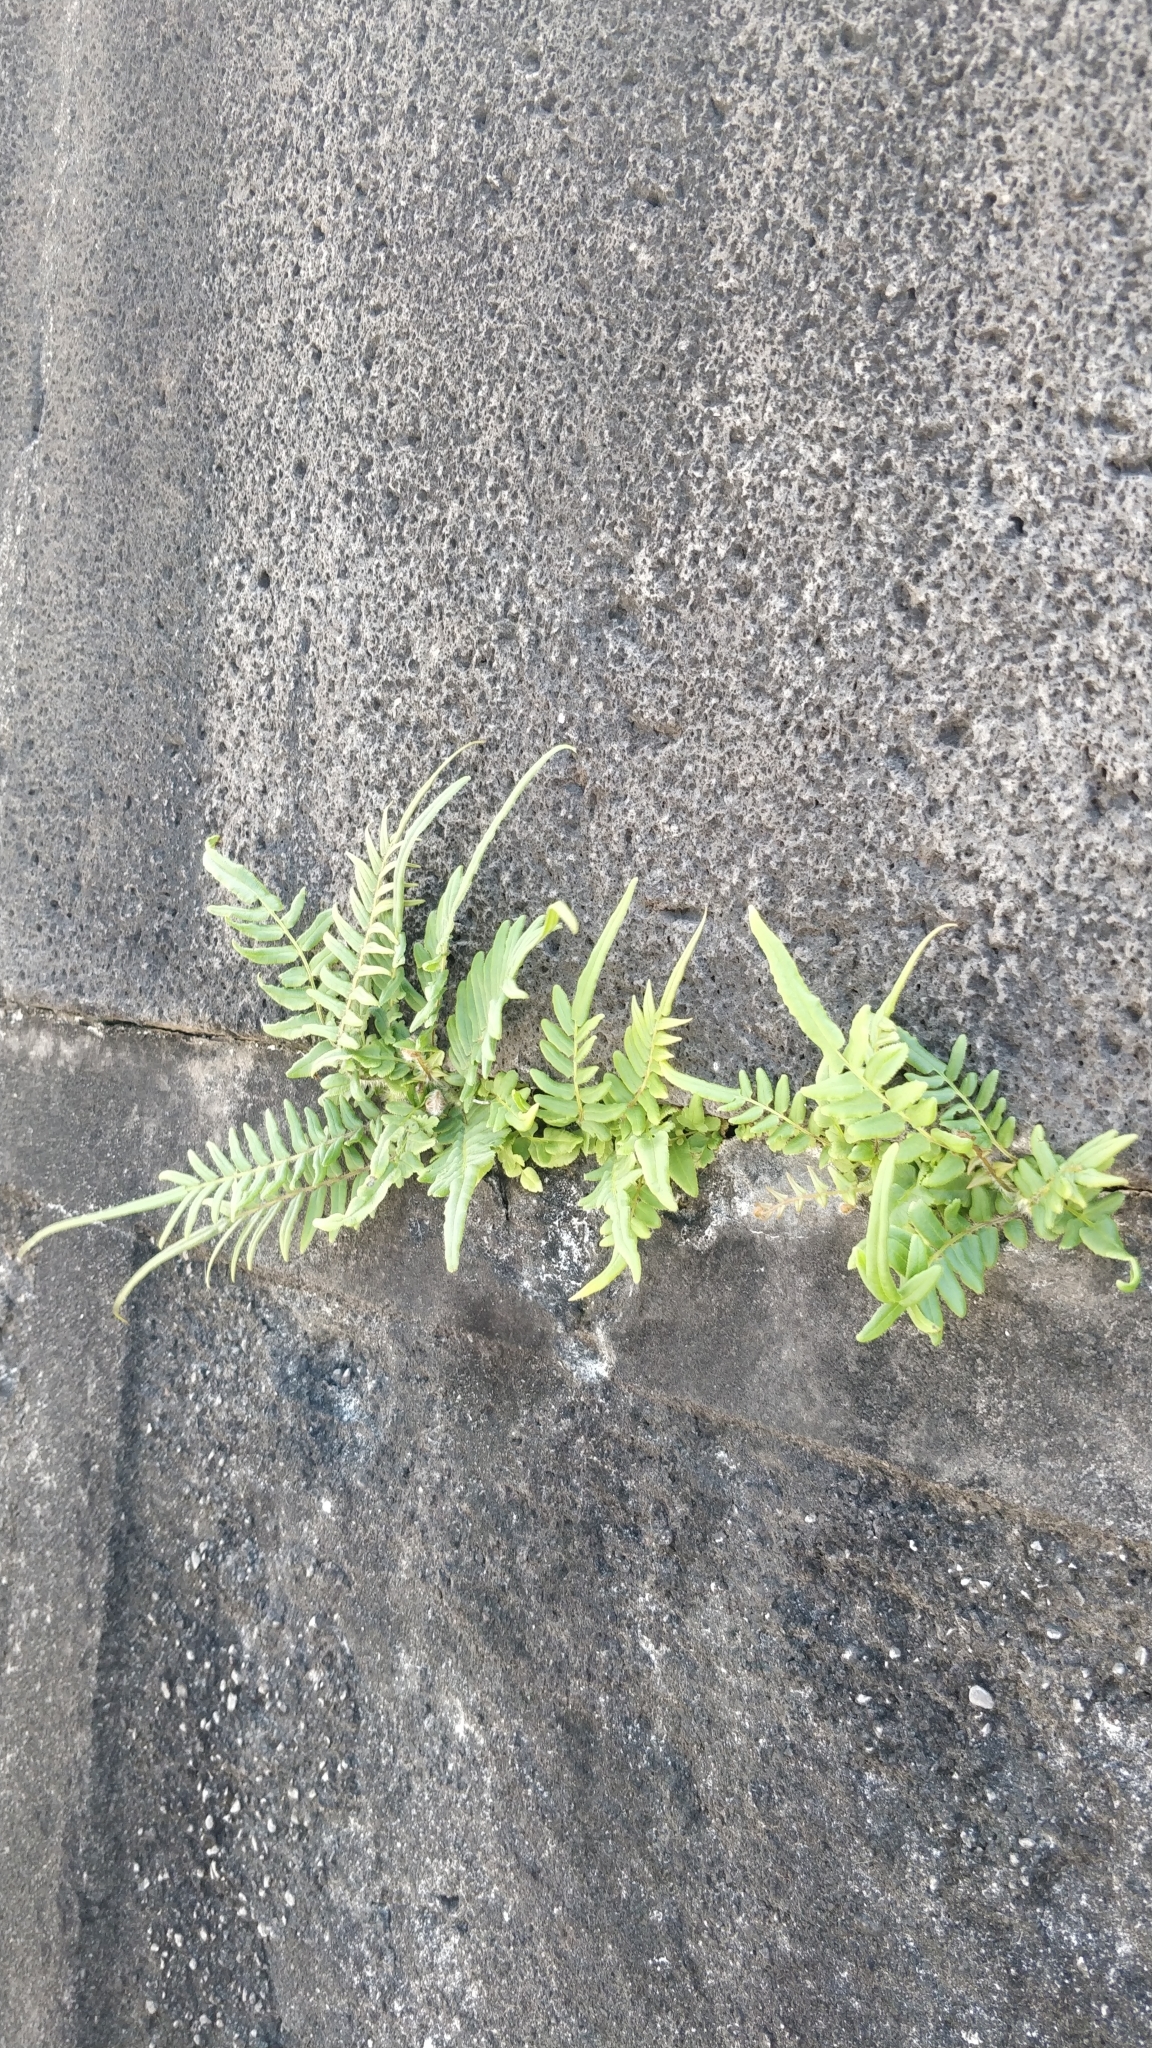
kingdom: Plantae
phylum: Tracheophyta
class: Polypodiopsida
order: Polypodiales
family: Pteridaceae
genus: Pteris
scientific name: Pteris vittata
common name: Ladder brake
